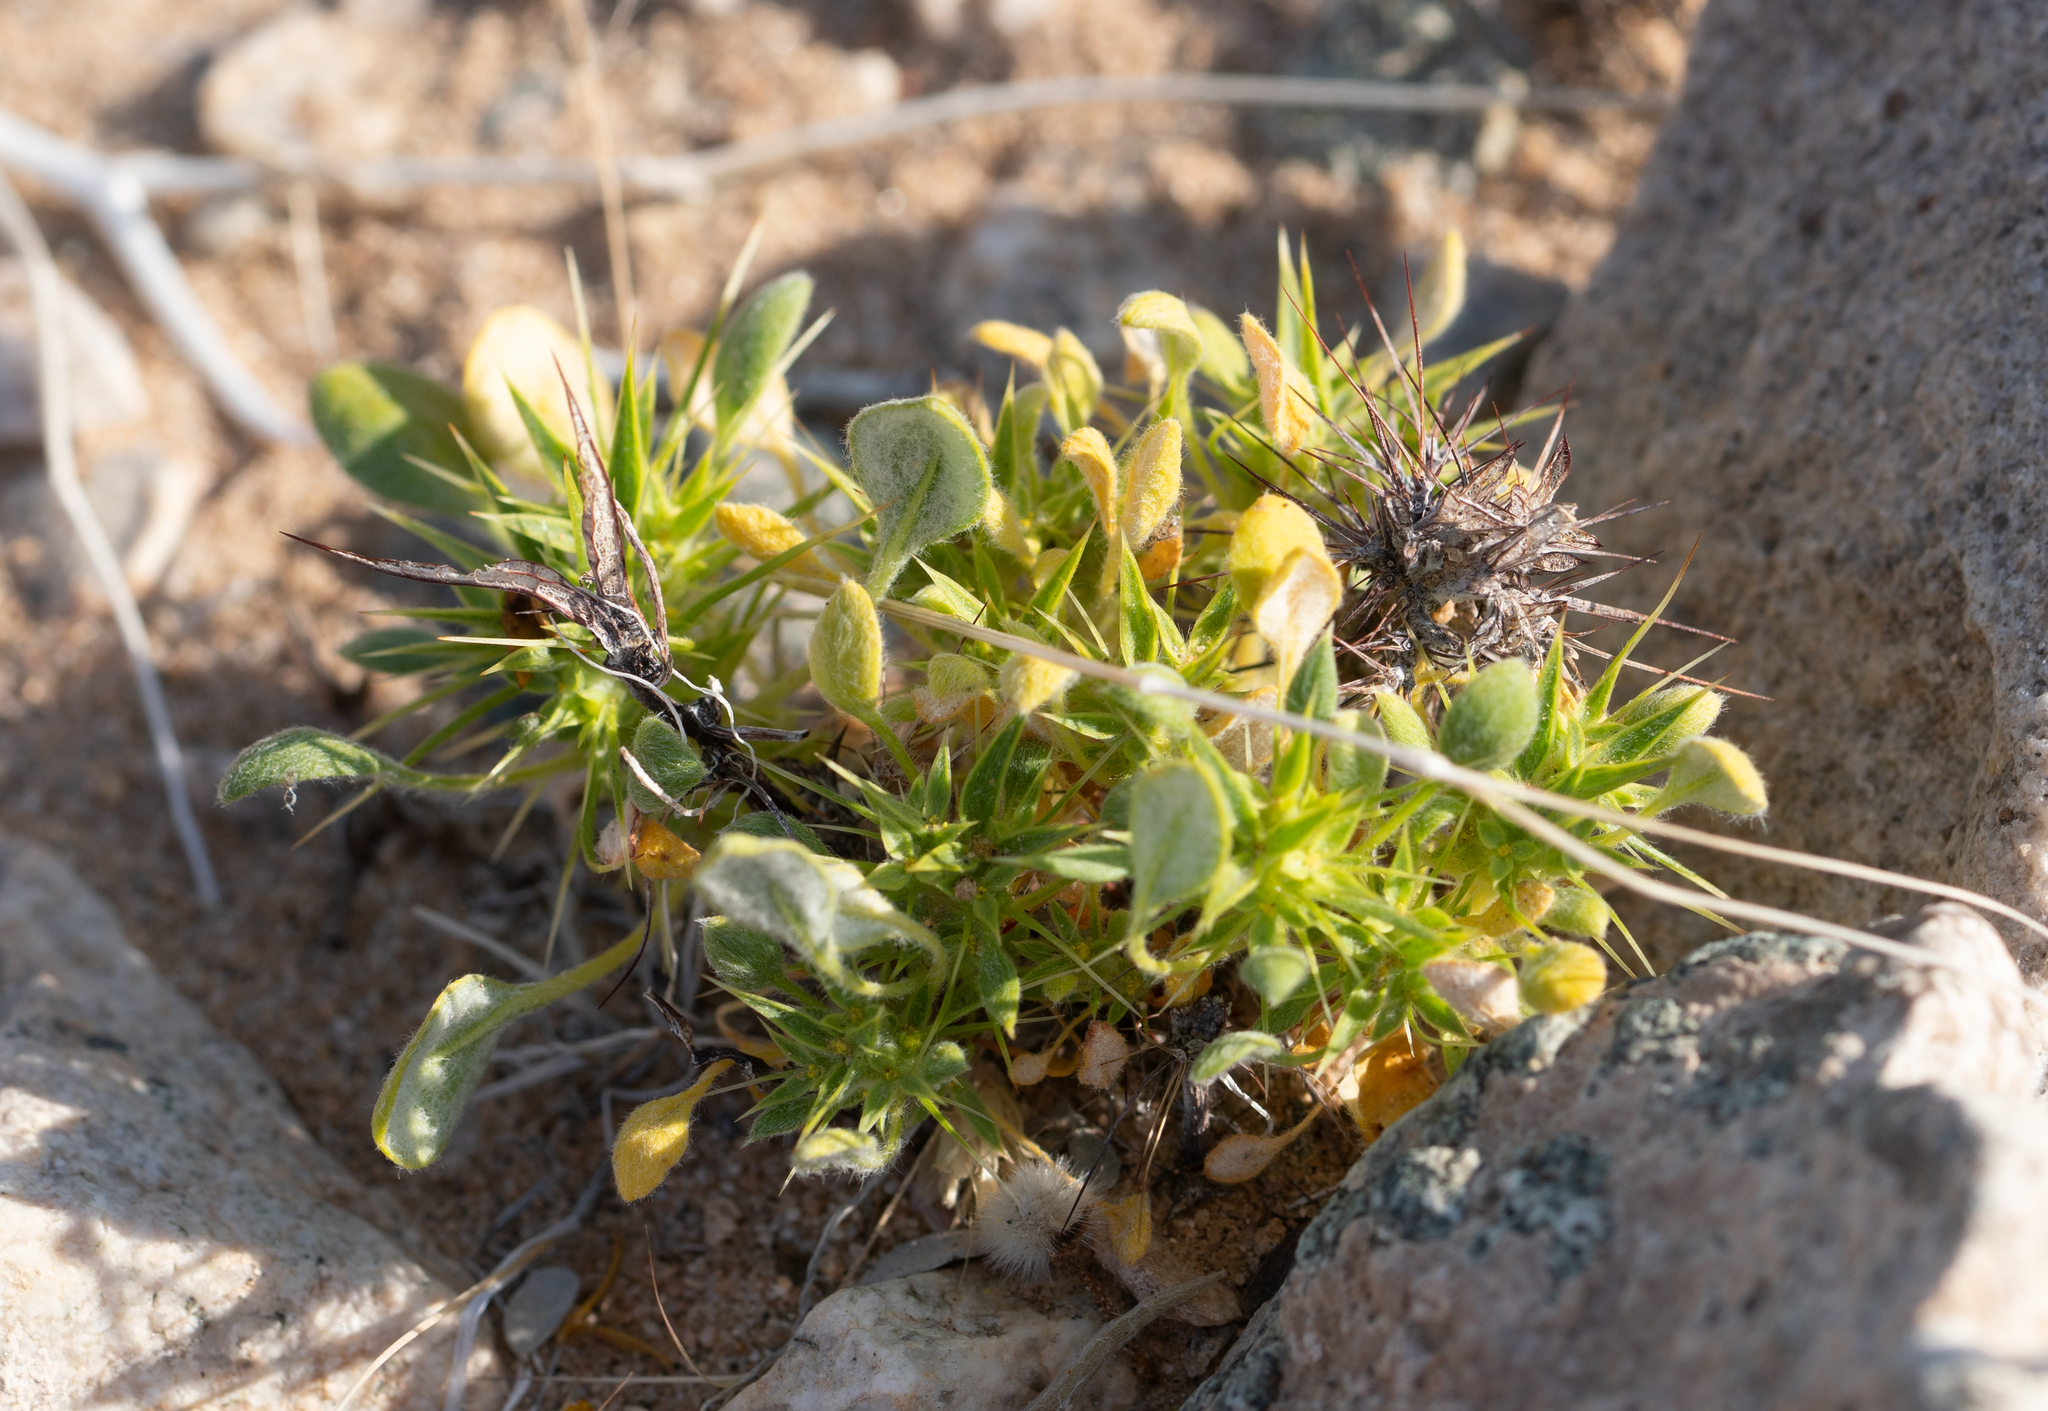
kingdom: Plantae
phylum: Tracheophyta
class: Magnoliopsida
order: Caryophyllales
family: Polygonaceae
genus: Chorizanthe
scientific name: Chorizanthe rigida
